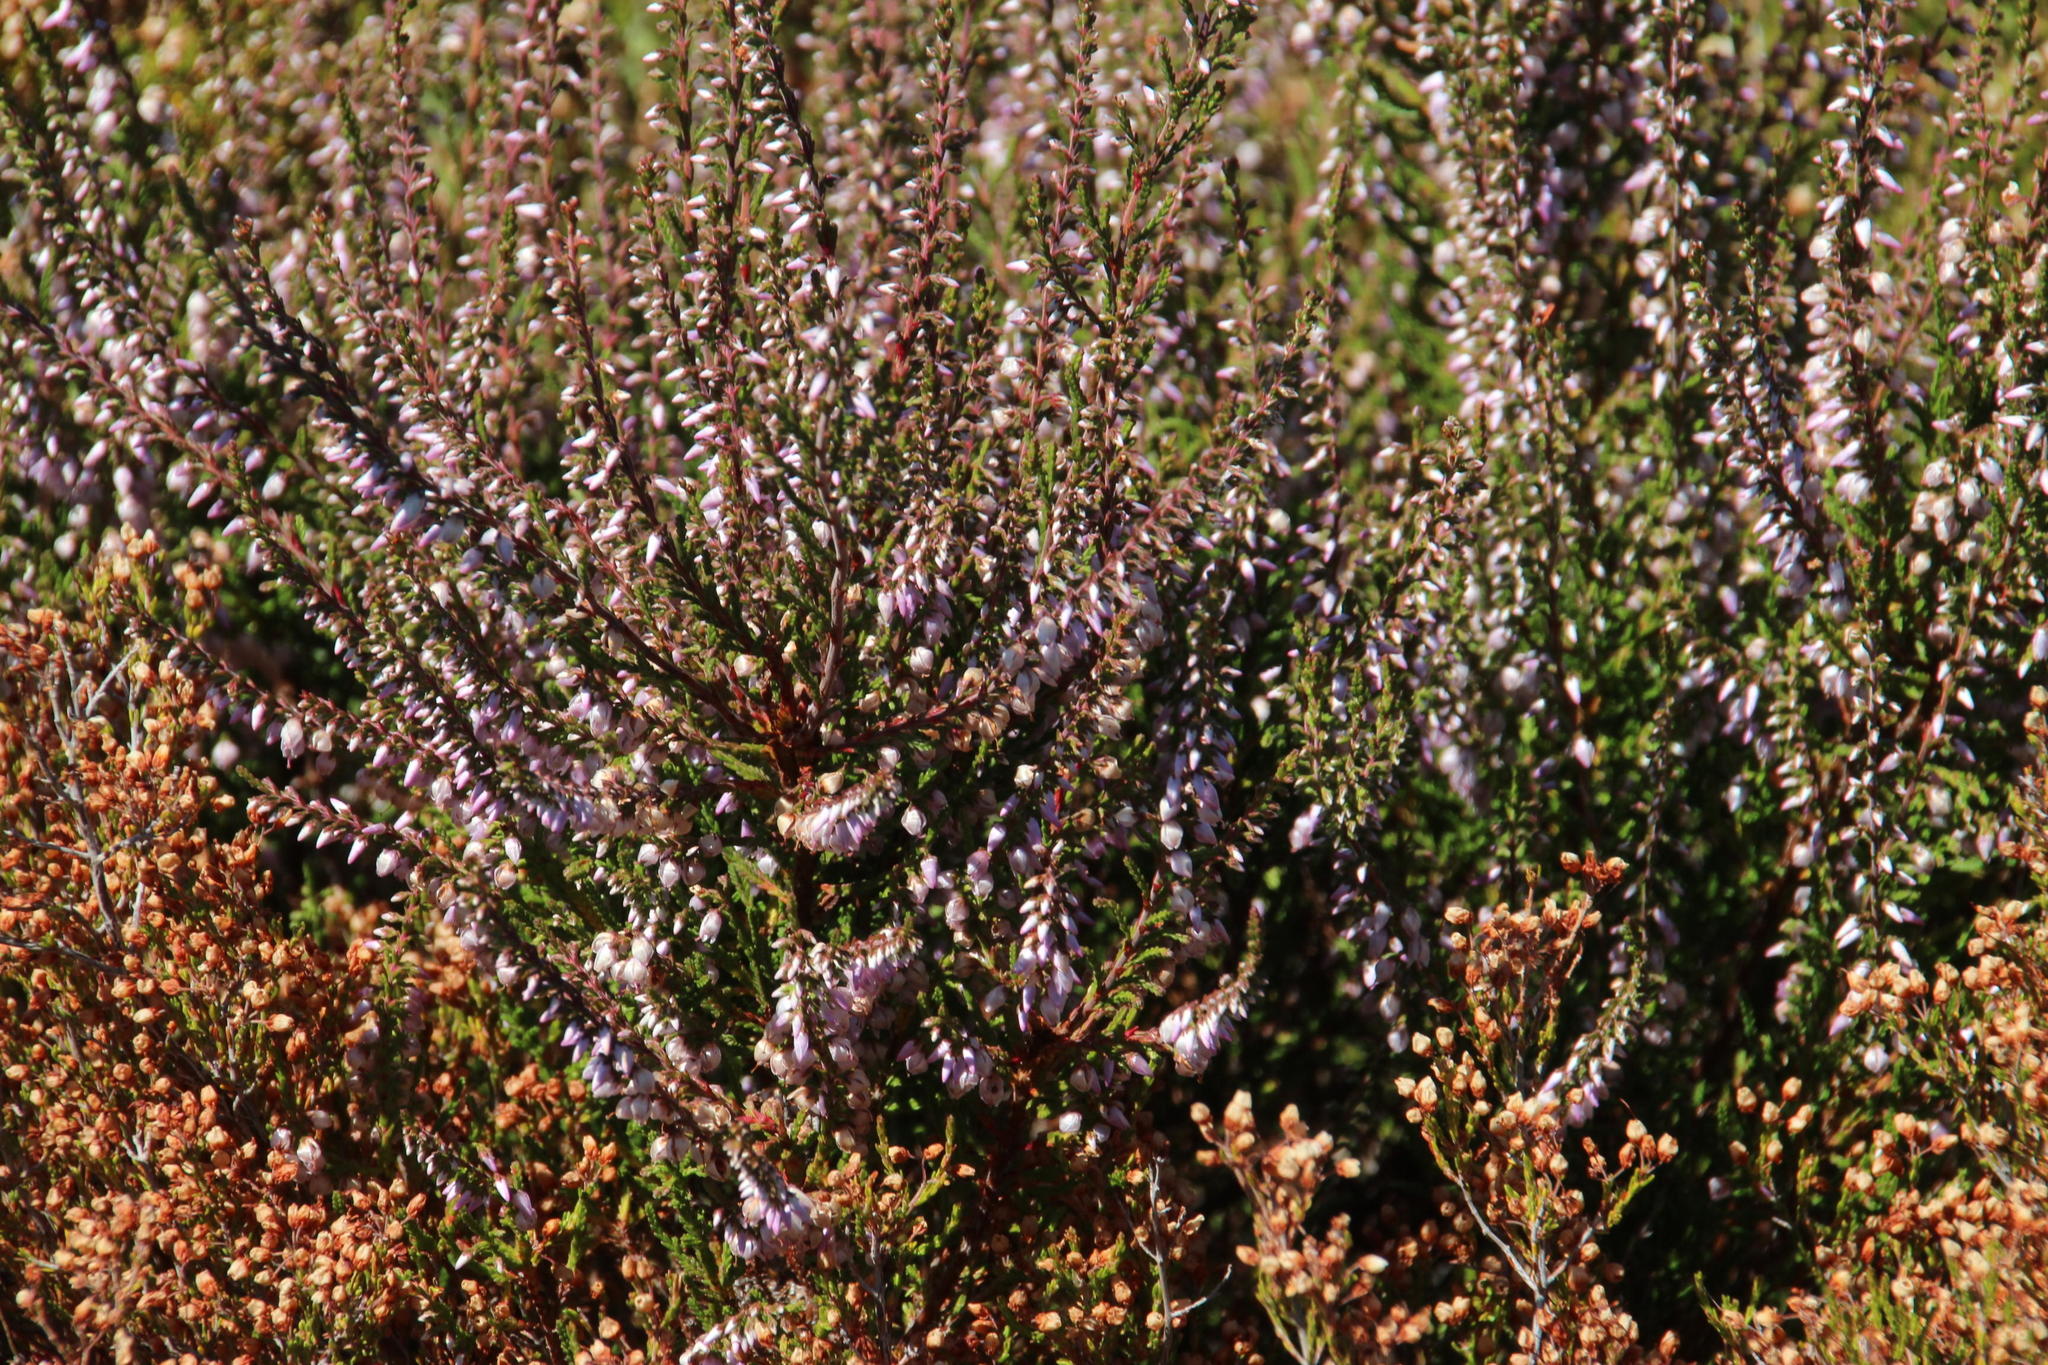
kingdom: Plantae
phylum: Tracheophyta
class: Magnoliopsida
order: Ericales
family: Ericaceae
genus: Calluna
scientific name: Calluna vulgaris
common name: Heather
